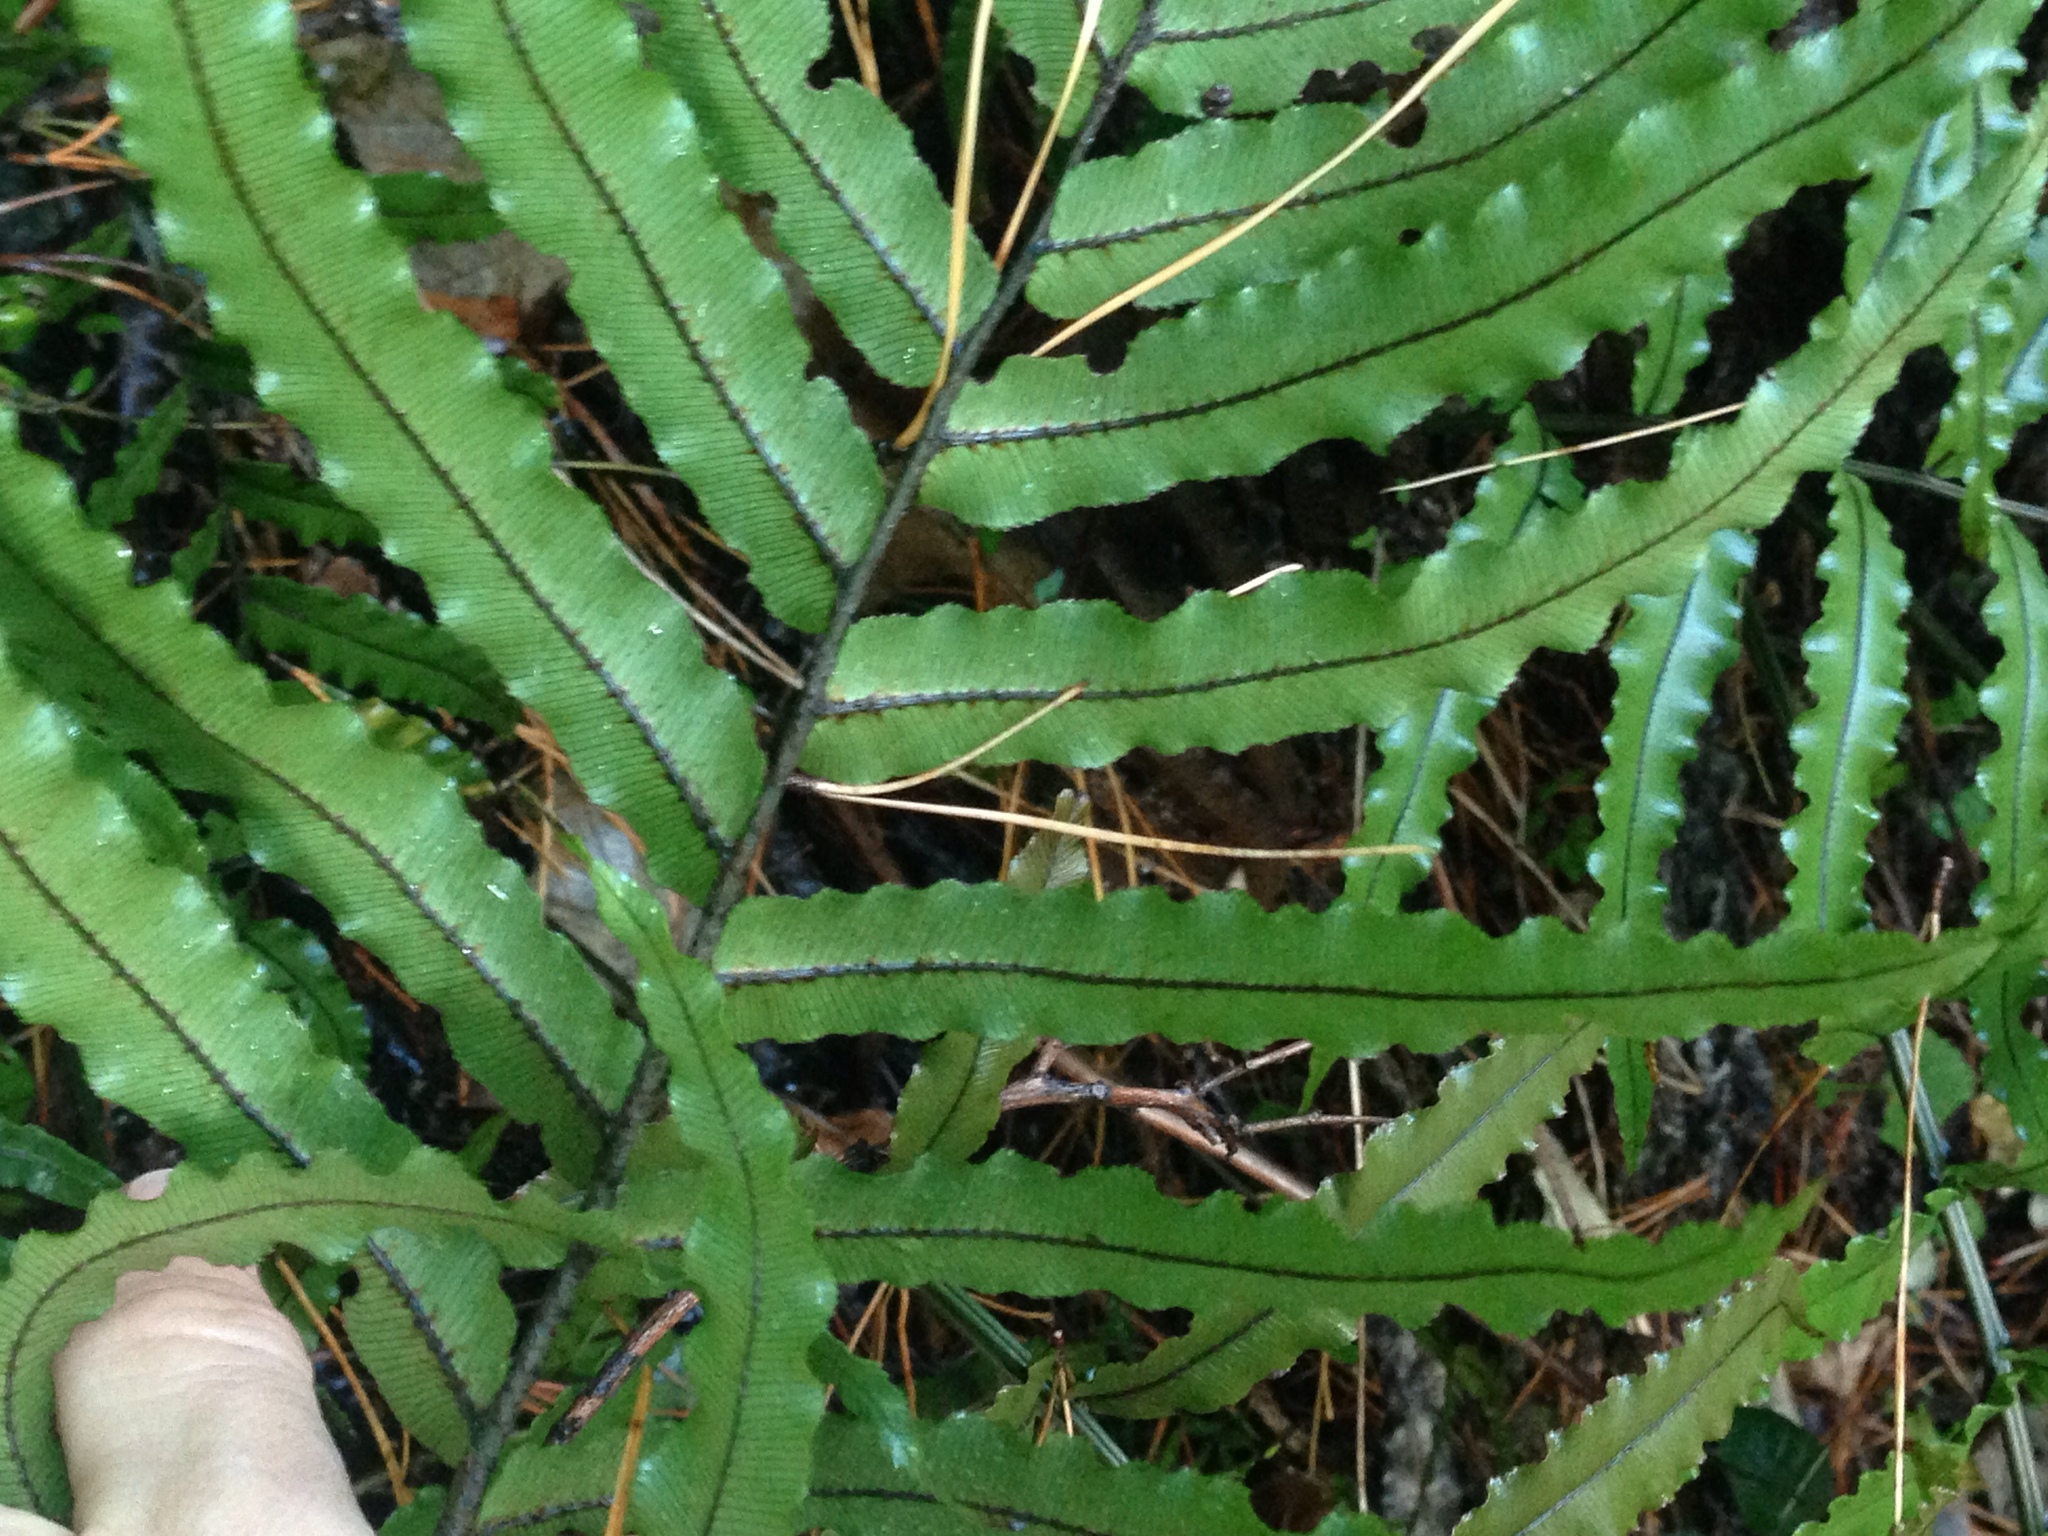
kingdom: Plantae
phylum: Tracheophyta
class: Polypodiopsida
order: Polypodiales
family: Blechnaceae
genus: Parablechnum
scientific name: Parablechnum montanum
